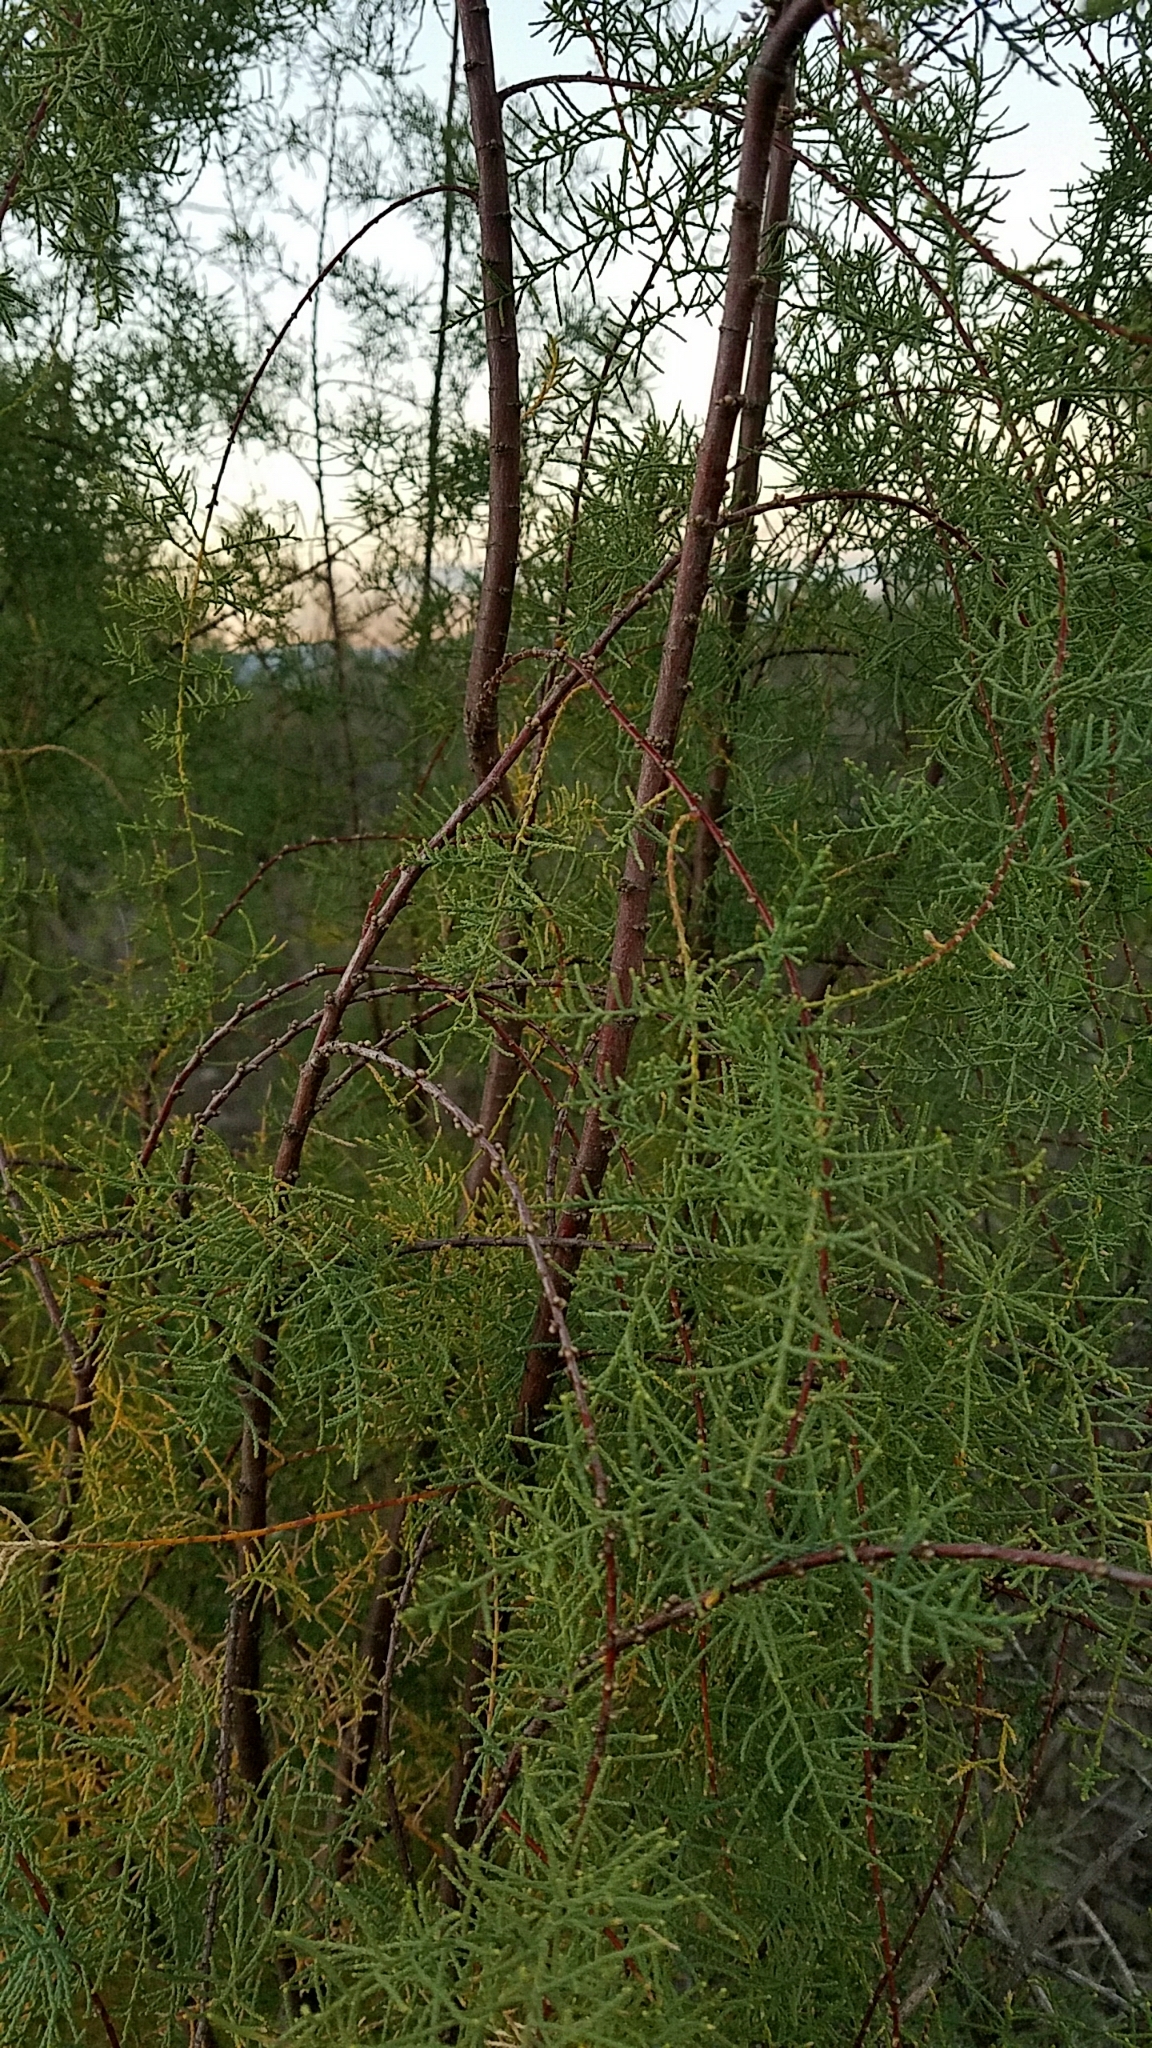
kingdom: Plantae
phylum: Tracheophyta
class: Magnoliopsida
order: Caryophyllales
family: Tamaricaceae
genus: Tamarix
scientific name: Tamarix ramosissima
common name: Pink tamarisk
